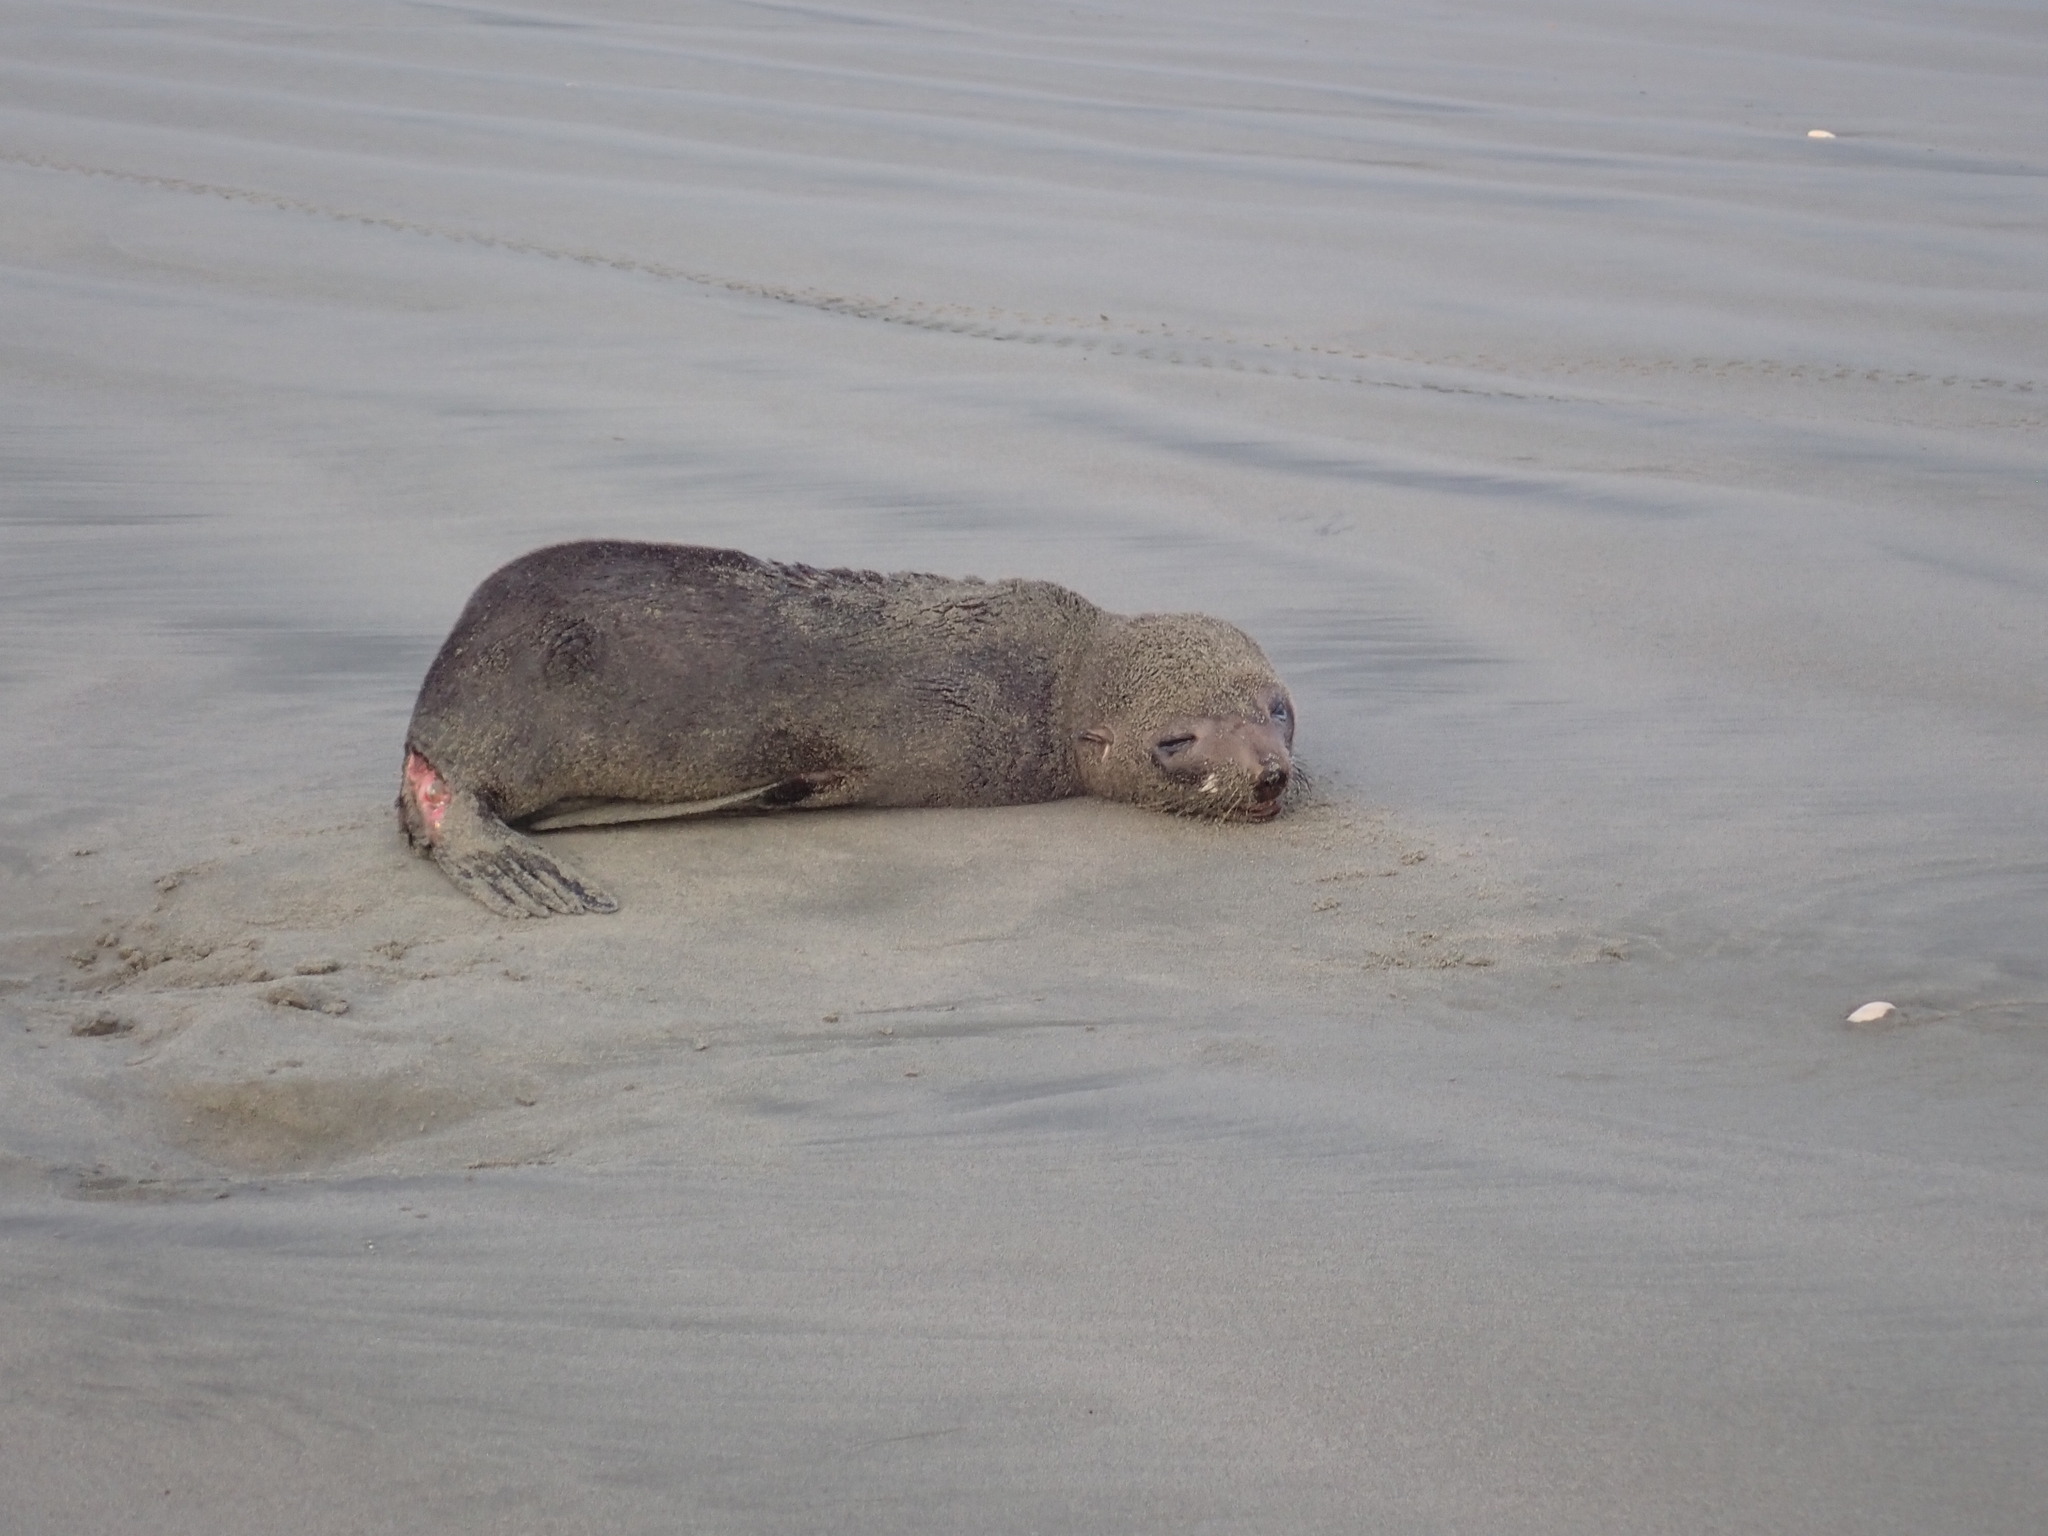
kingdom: Animalia
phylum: Chordata
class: Mammalia
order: Carnivora
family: Otariidae
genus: Arctocephalus
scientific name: Arctocephalus forsteri
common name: New zealand fur seal
